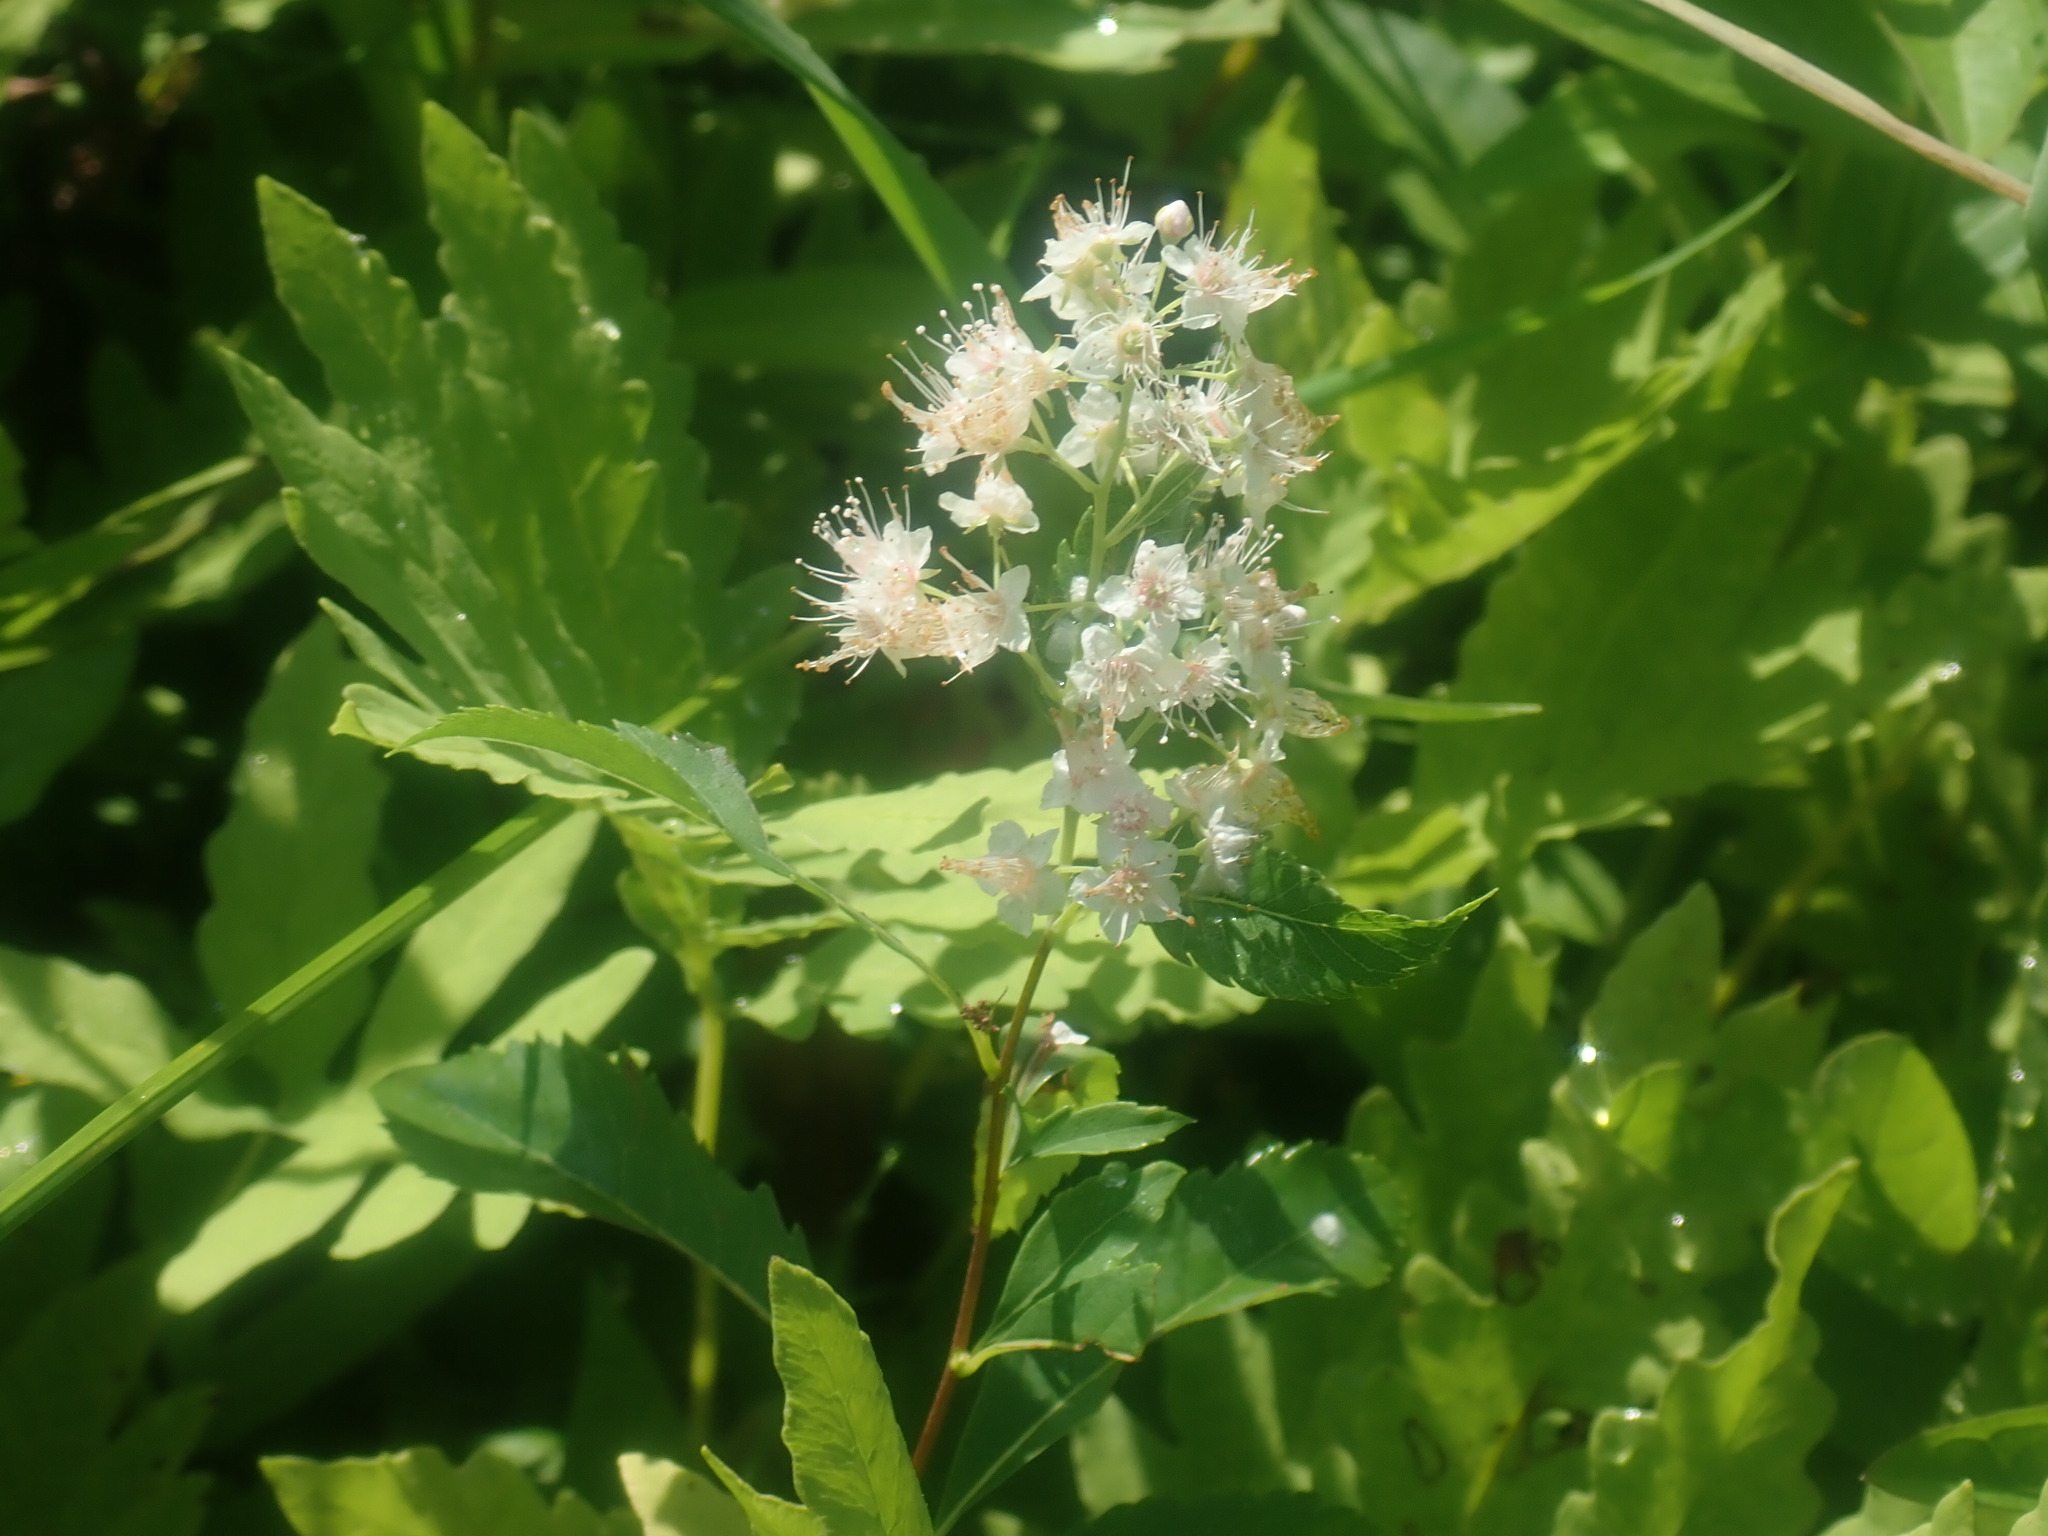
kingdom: Plantae
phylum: Tracheophyta
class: Magnoliopsida
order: Rosales
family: Rosaceae
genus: Spiraea
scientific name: Spiraea alba
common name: Pale bridewort
